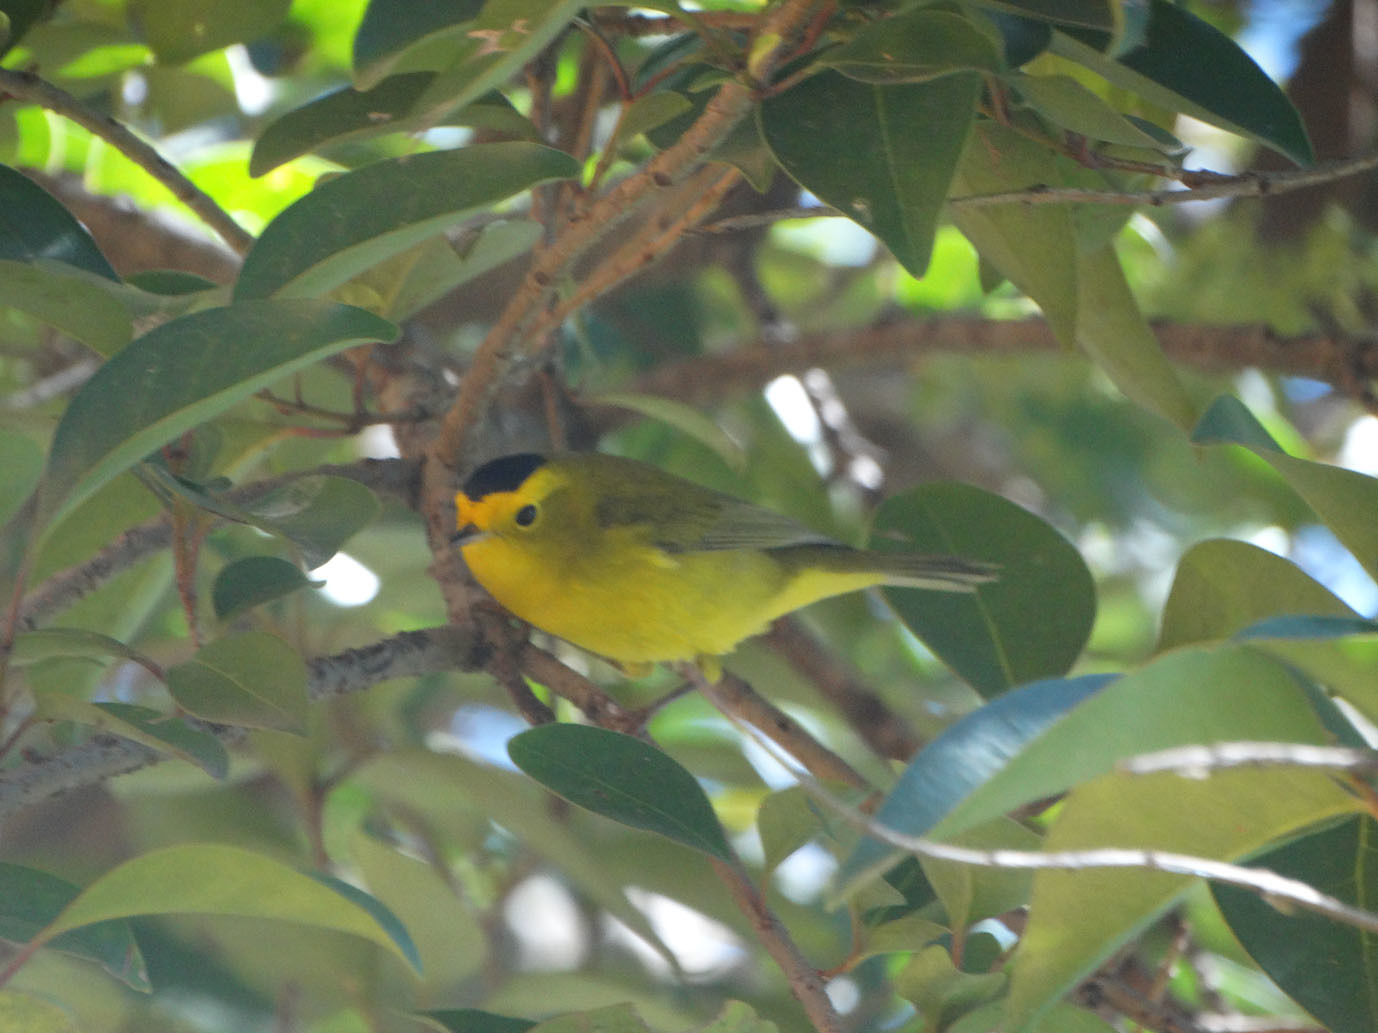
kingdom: Animalia
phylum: Chordata
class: Aves
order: Passeriformes
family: Parulidae
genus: Cardellina
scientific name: Cardellina pusilla
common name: Wilson's warbler
